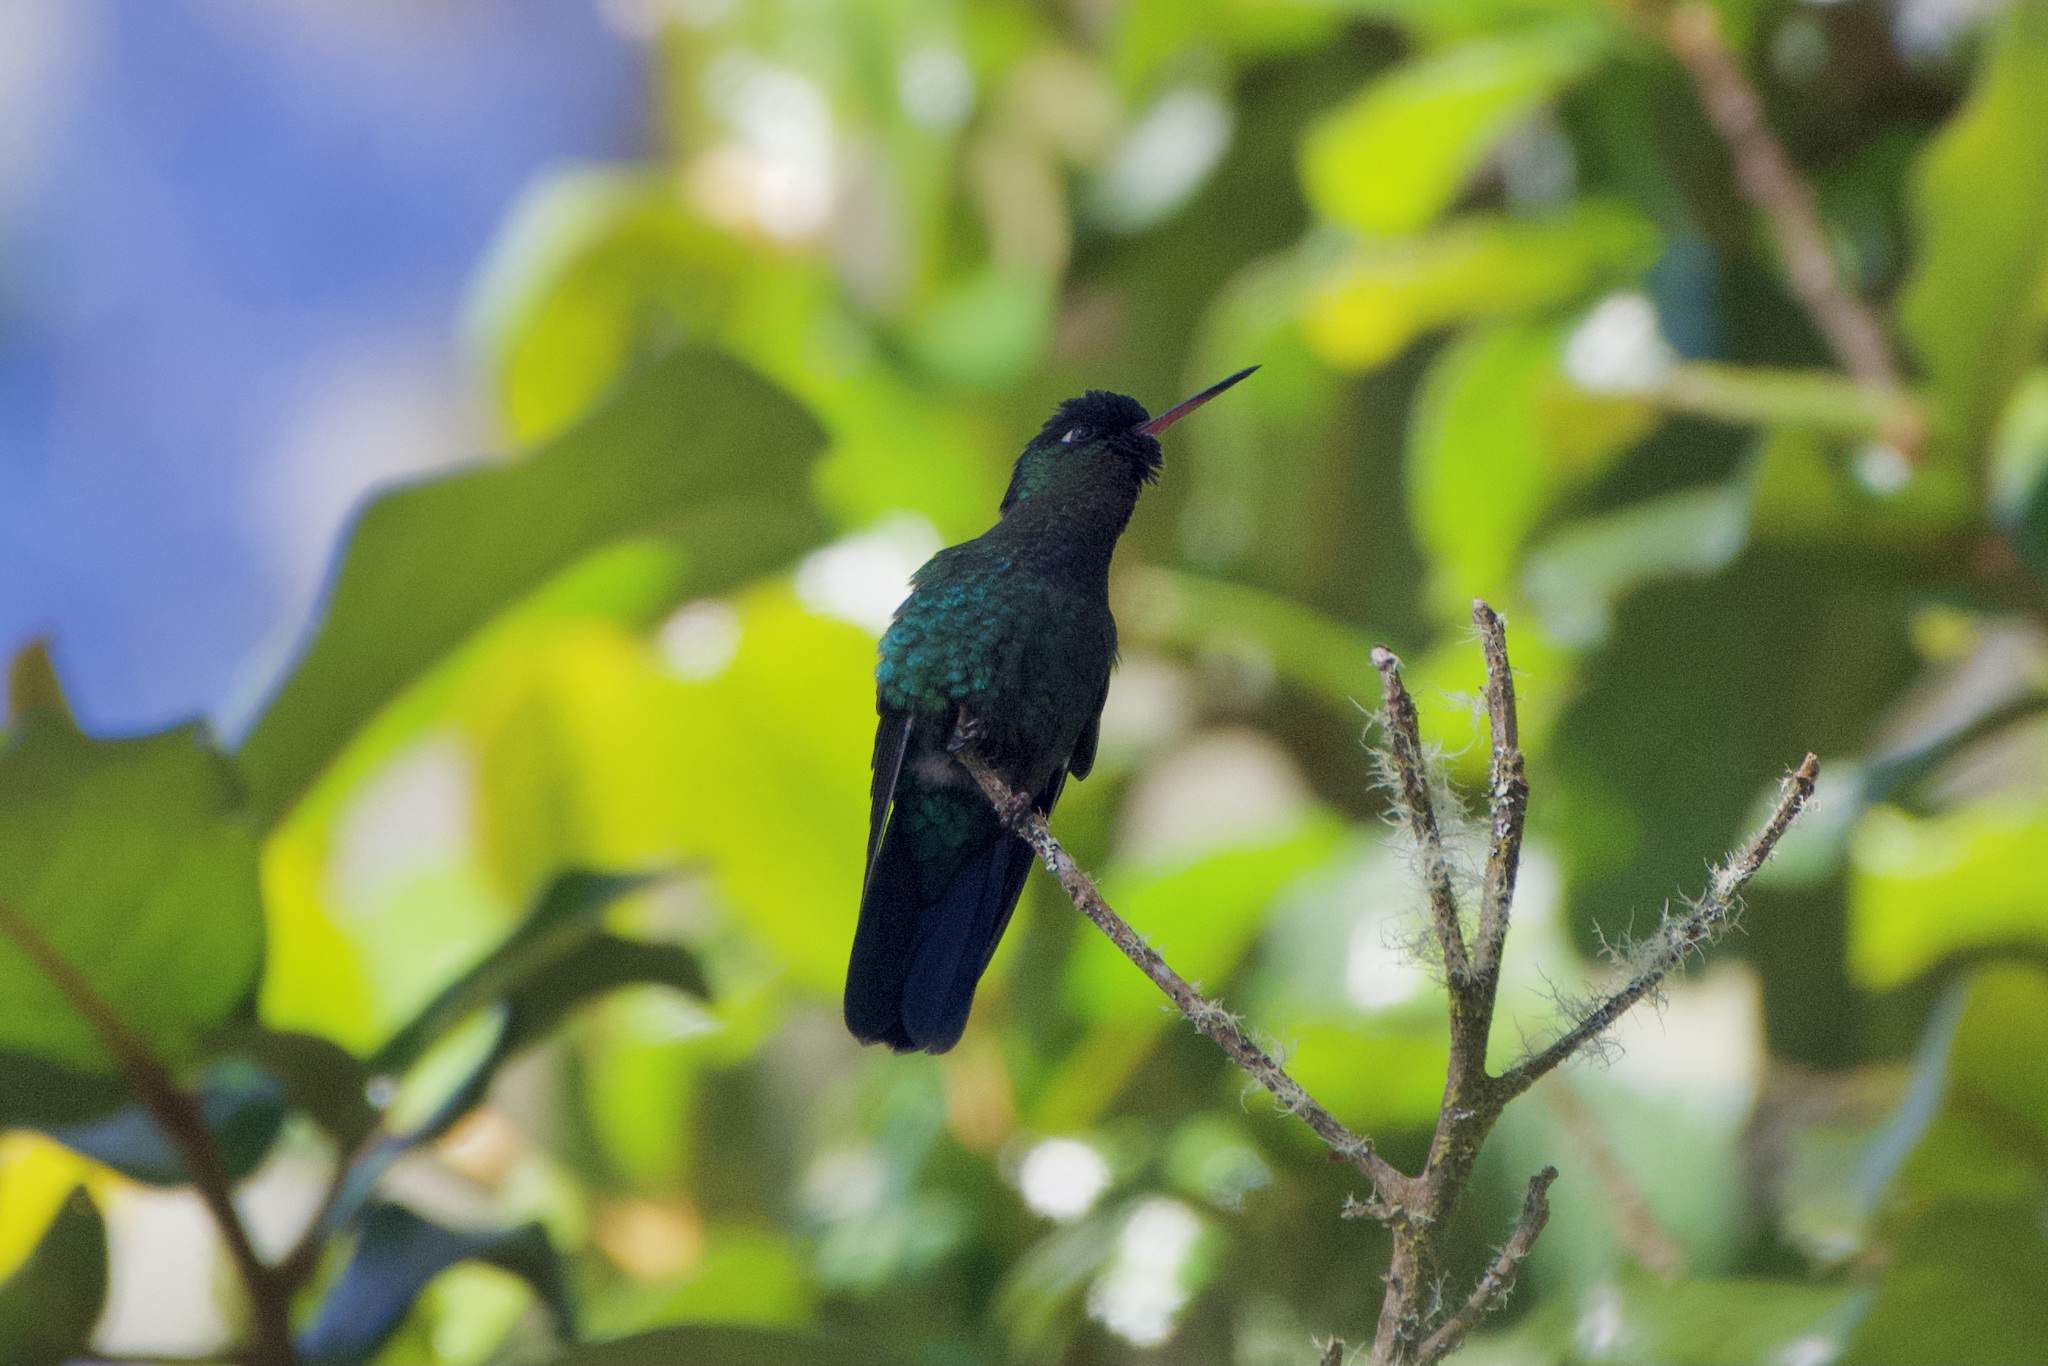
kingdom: Animalia
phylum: Chordata
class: Aves
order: Apodiformes
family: Trochilidae
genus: Panterpe
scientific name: Panterpe insignis
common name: Fiery-throated hummingbird
